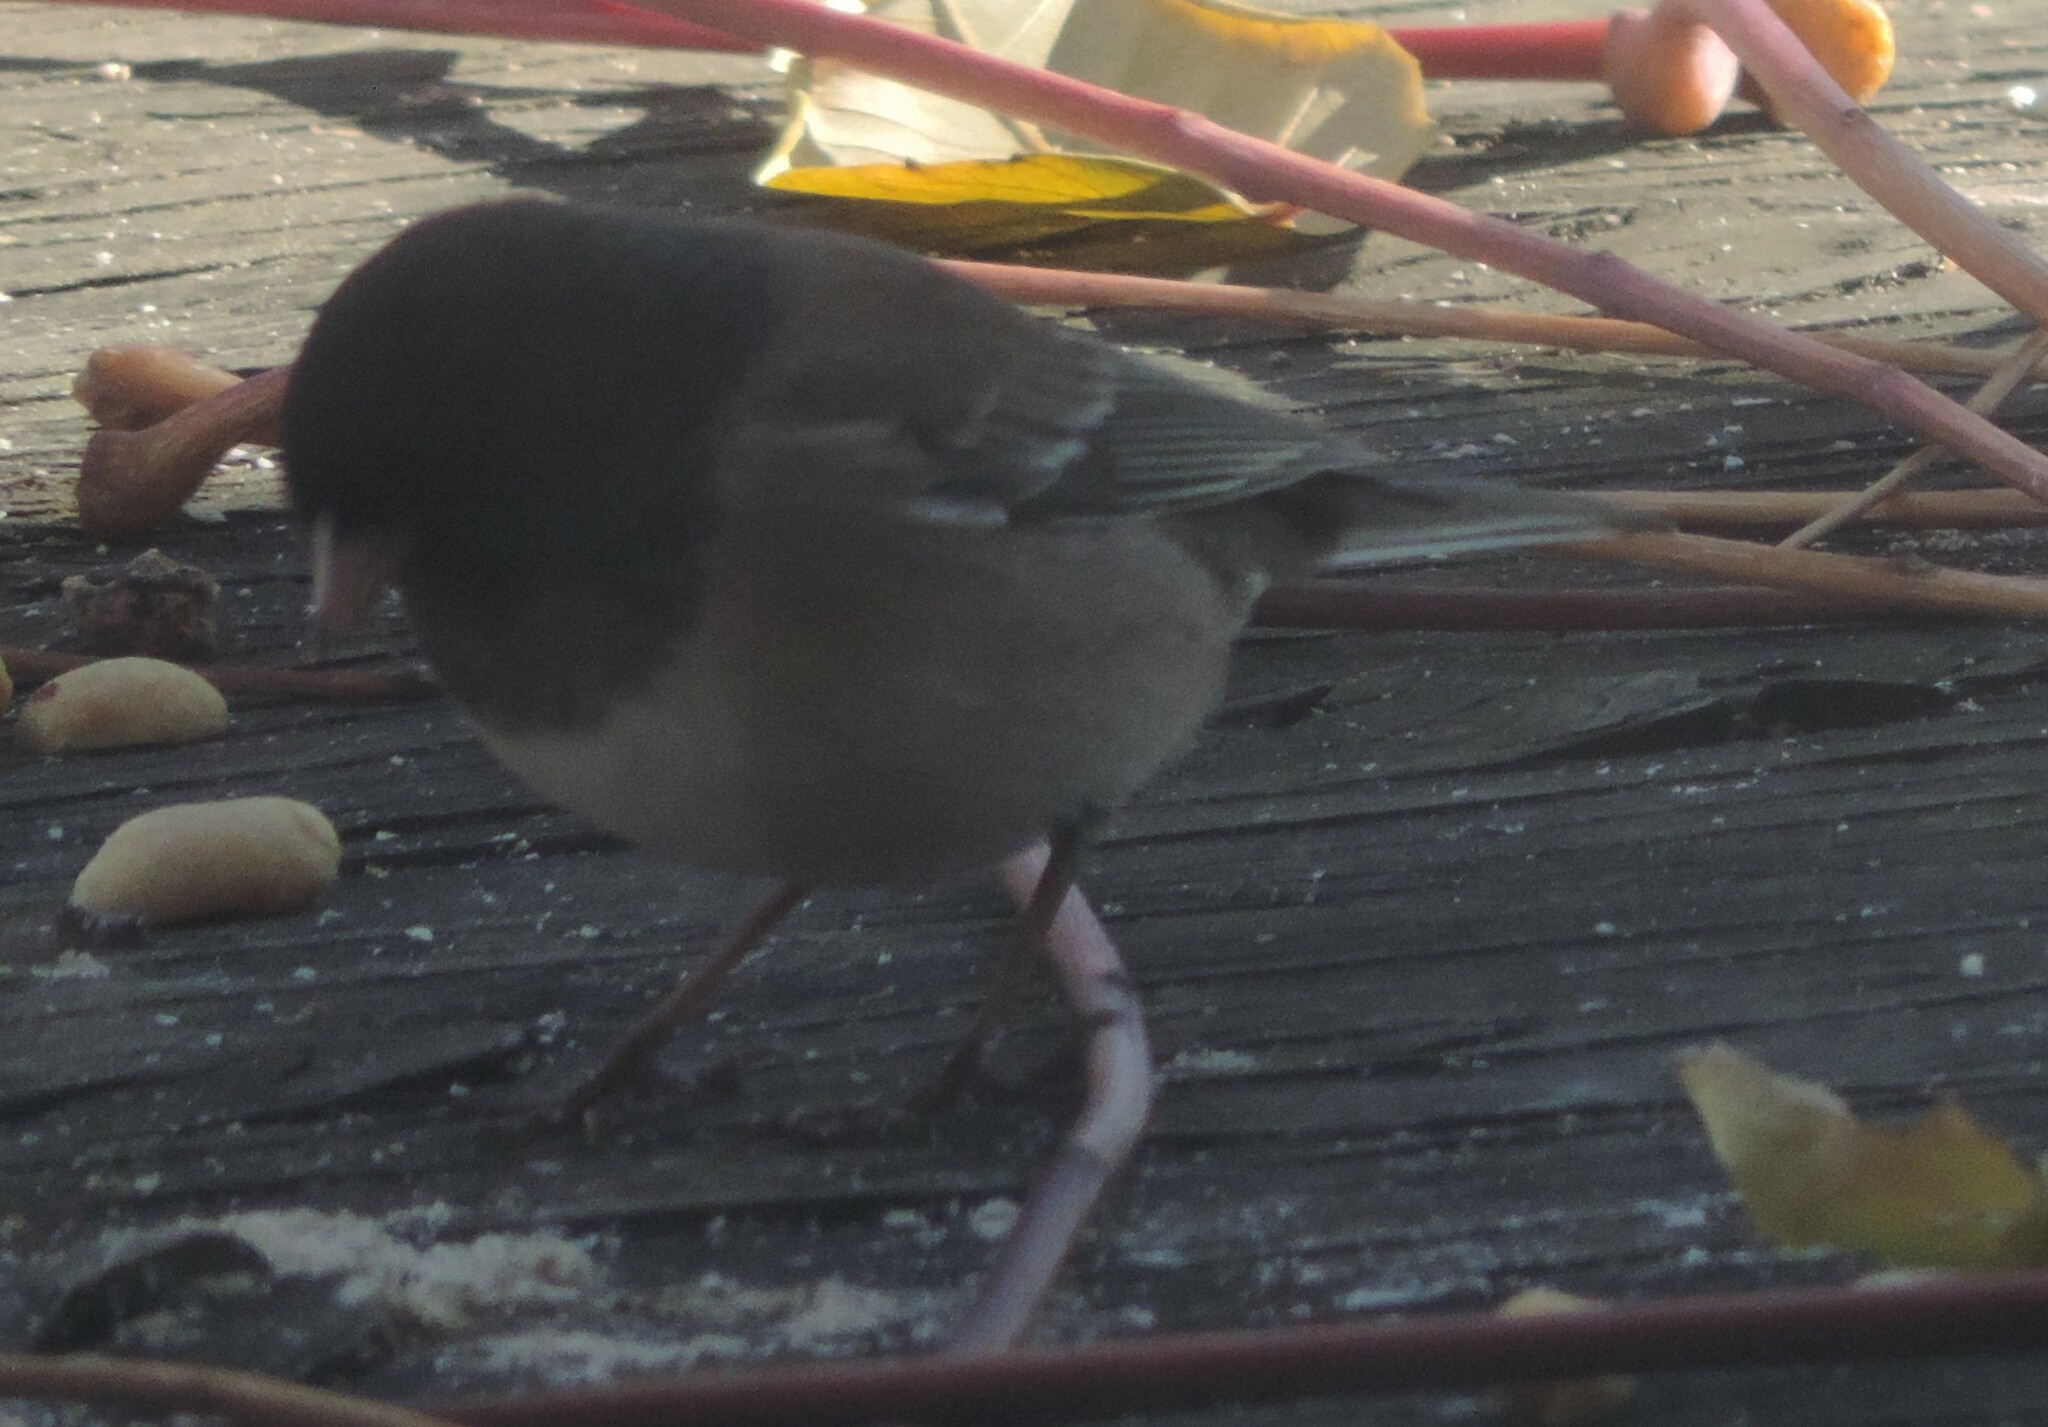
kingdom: Animalia
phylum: Chordata
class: Aves
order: Passeriformes
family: Passerellidae
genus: Junco
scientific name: Junco hyemalis
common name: Dark-eyed junco
